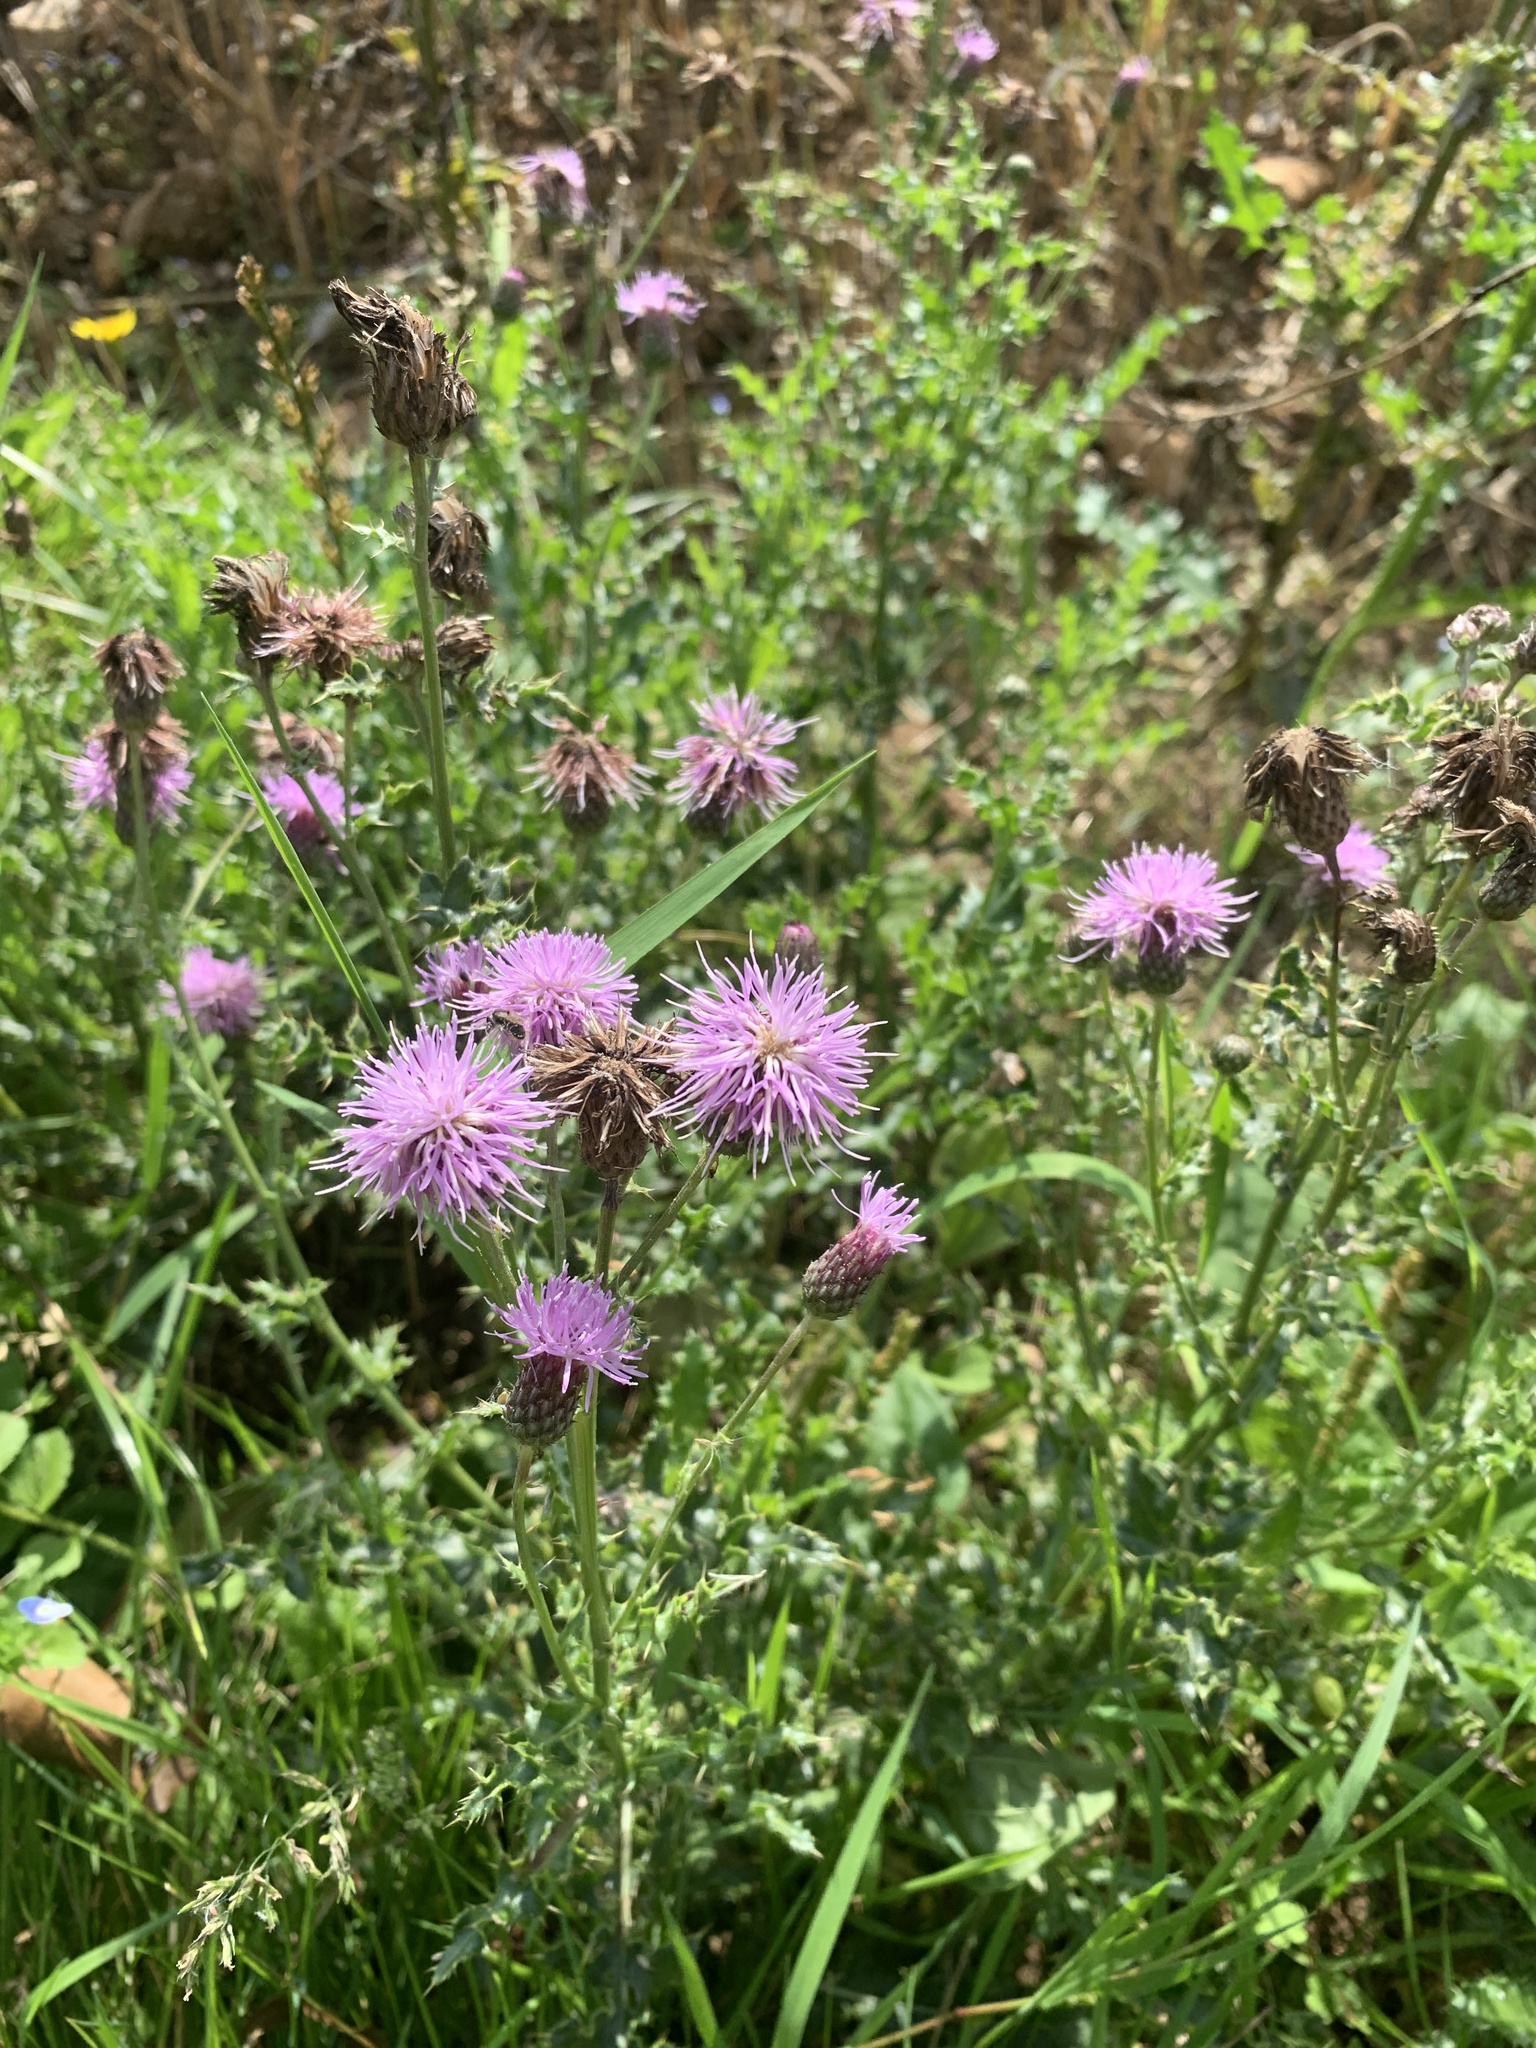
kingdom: Plantae
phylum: Tracheophyta
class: Magnoliopsida
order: Asterales
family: Asteraceae
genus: Cirsium
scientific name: Cirsium arvense
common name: Creeping thistle
